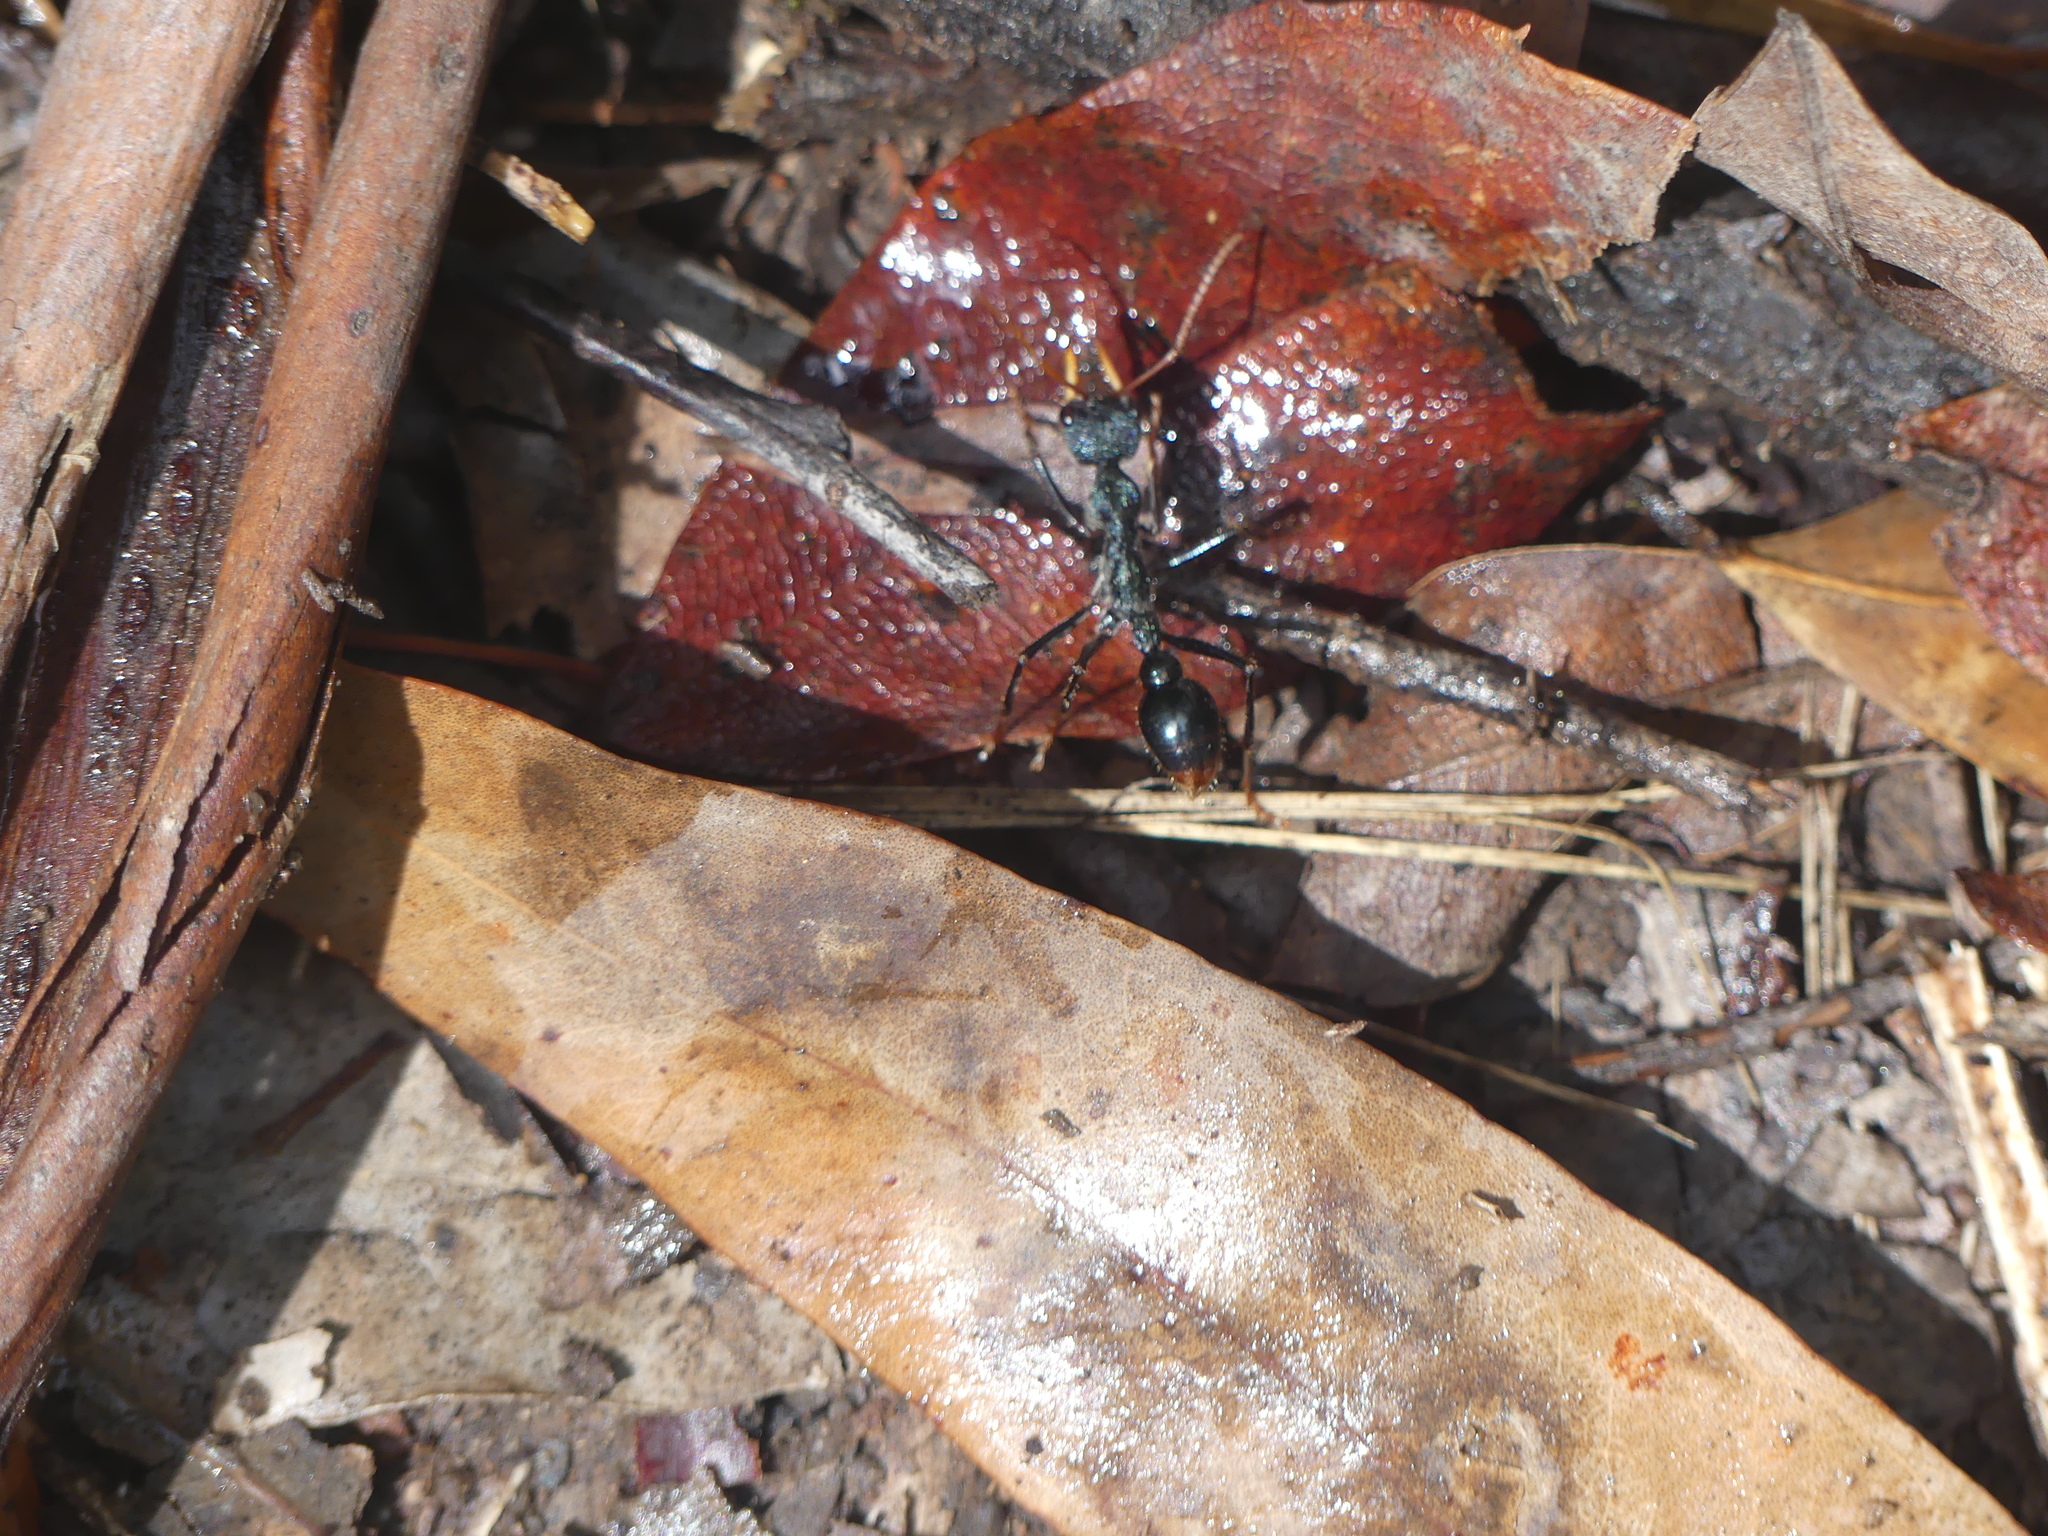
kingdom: Animalia
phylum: Arthropoda
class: Insecta
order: Hymenoptera
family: Formicidae
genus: Myrmecia
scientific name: Myrmecia tarsata
